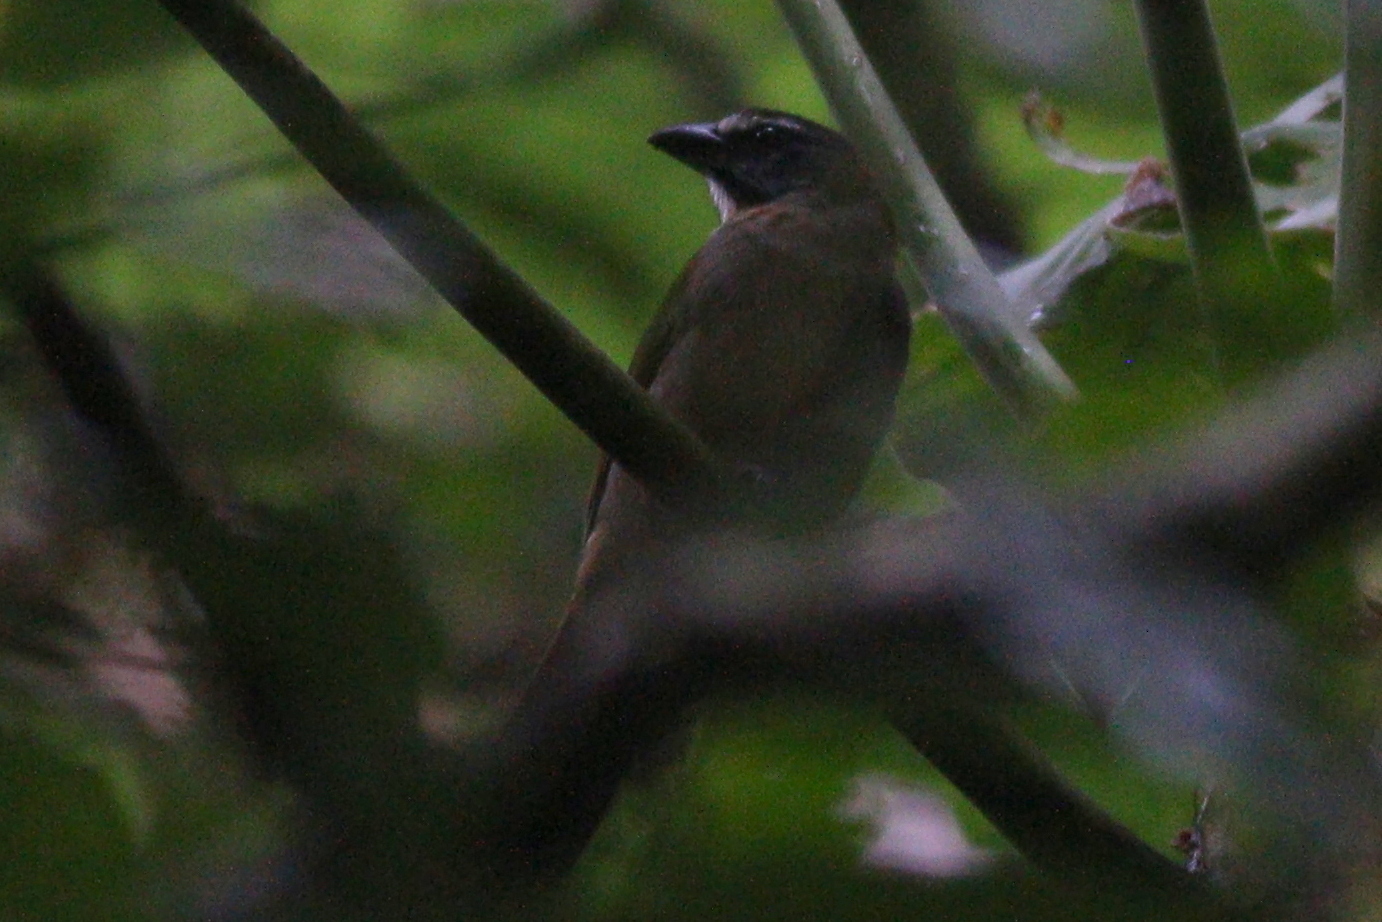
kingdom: Animalia
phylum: Chordata
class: Aves
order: Passeriformes
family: Thraupidae
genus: Saltator
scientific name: Saltator maximus
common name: Buff-throated saltator
